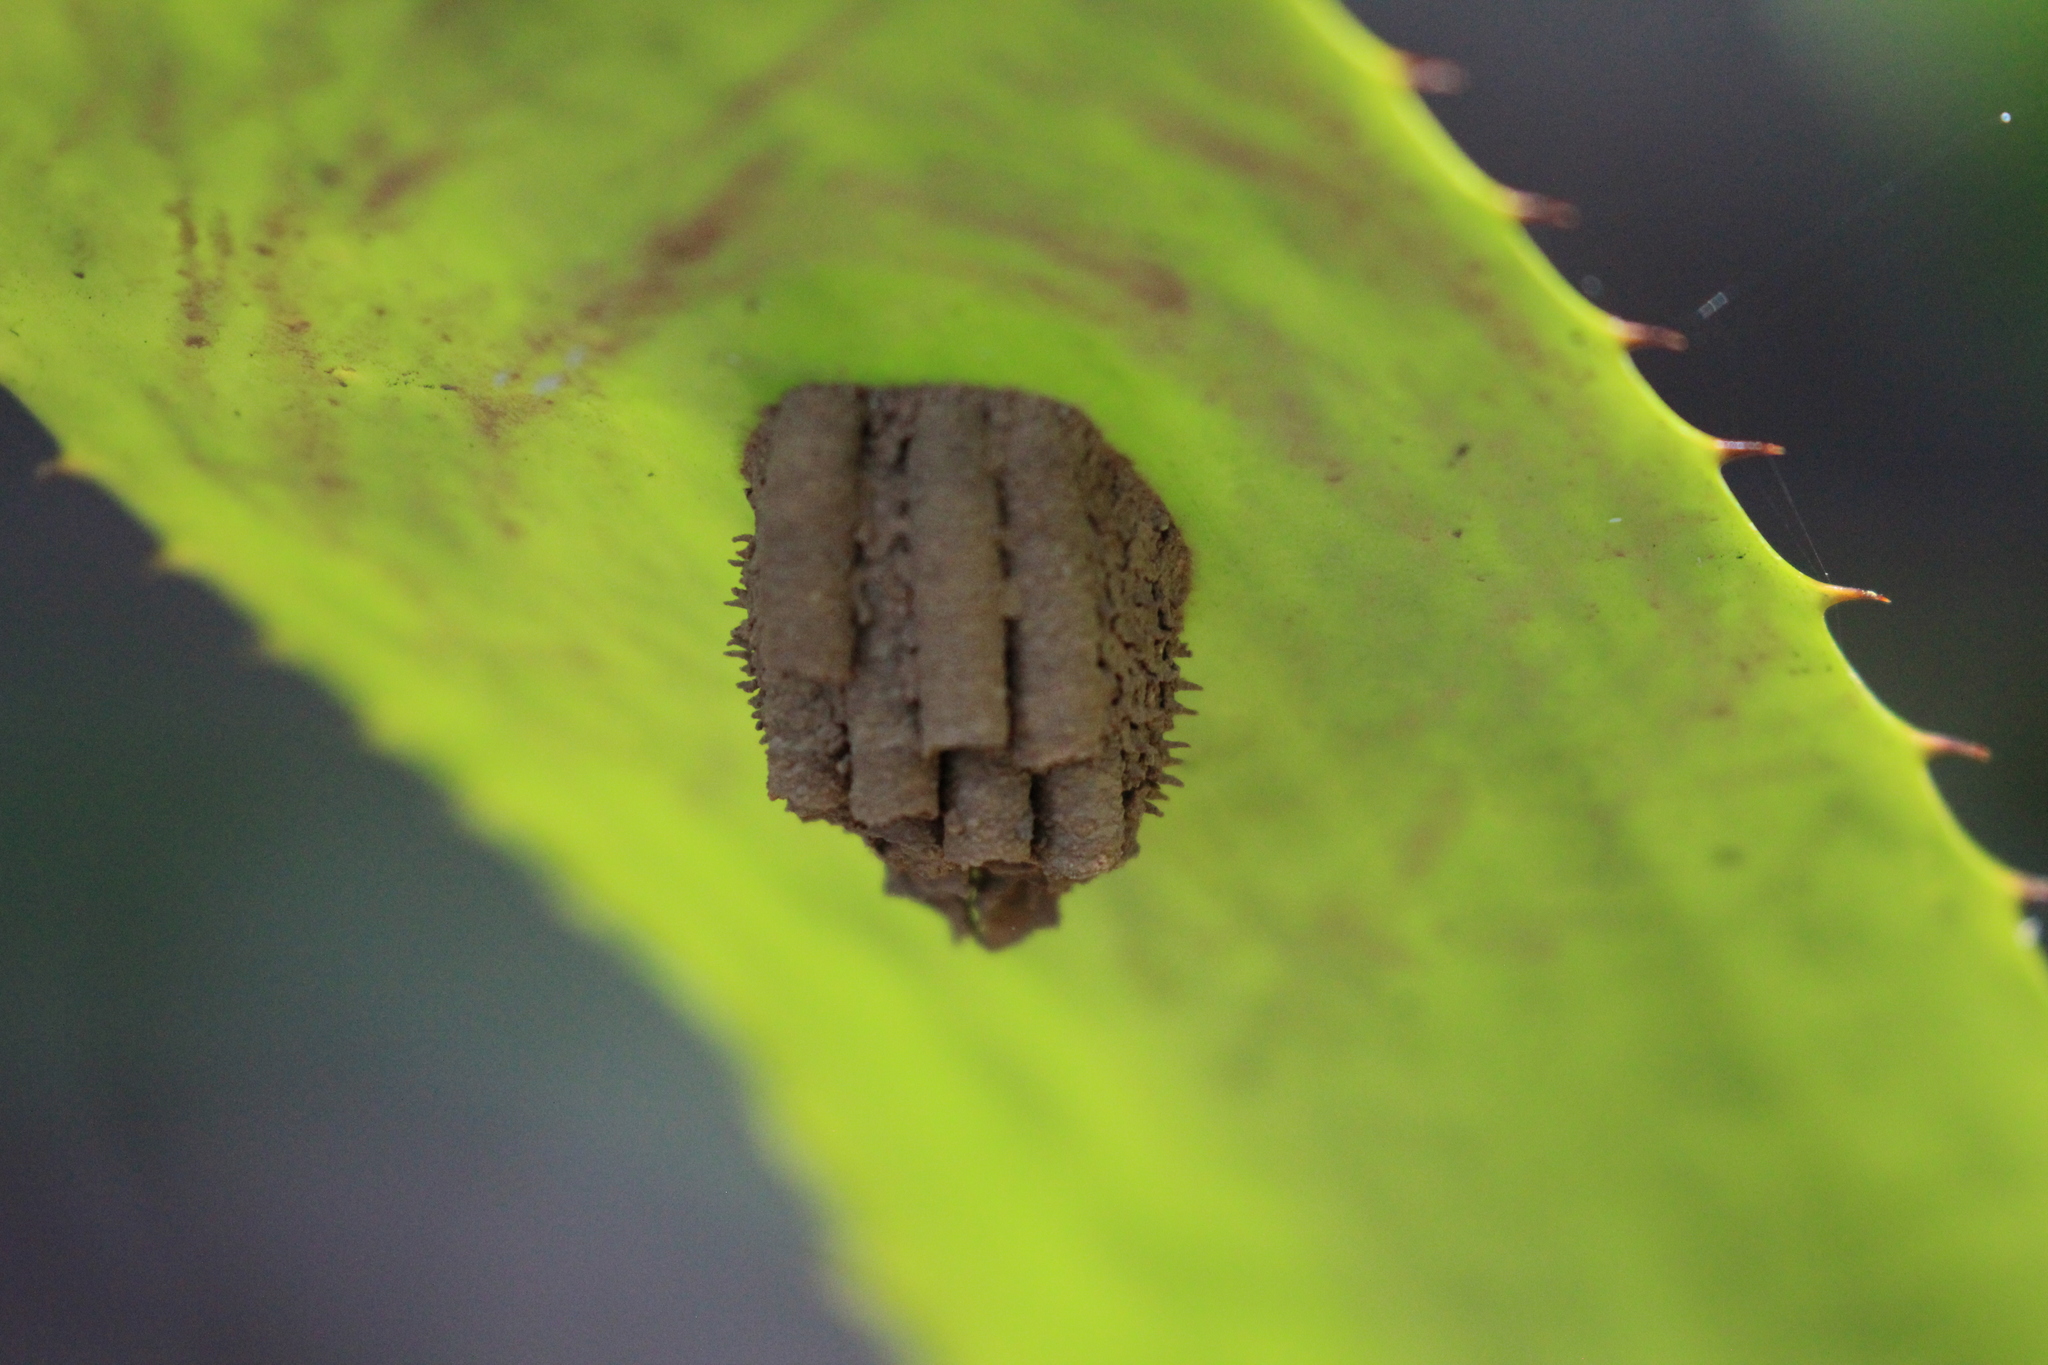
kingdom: Animalia
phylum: Arthropoda
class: Insecta
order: Hymenoptera
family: Crabronidae
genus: Trypoxylon
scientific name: Trypoxylon
